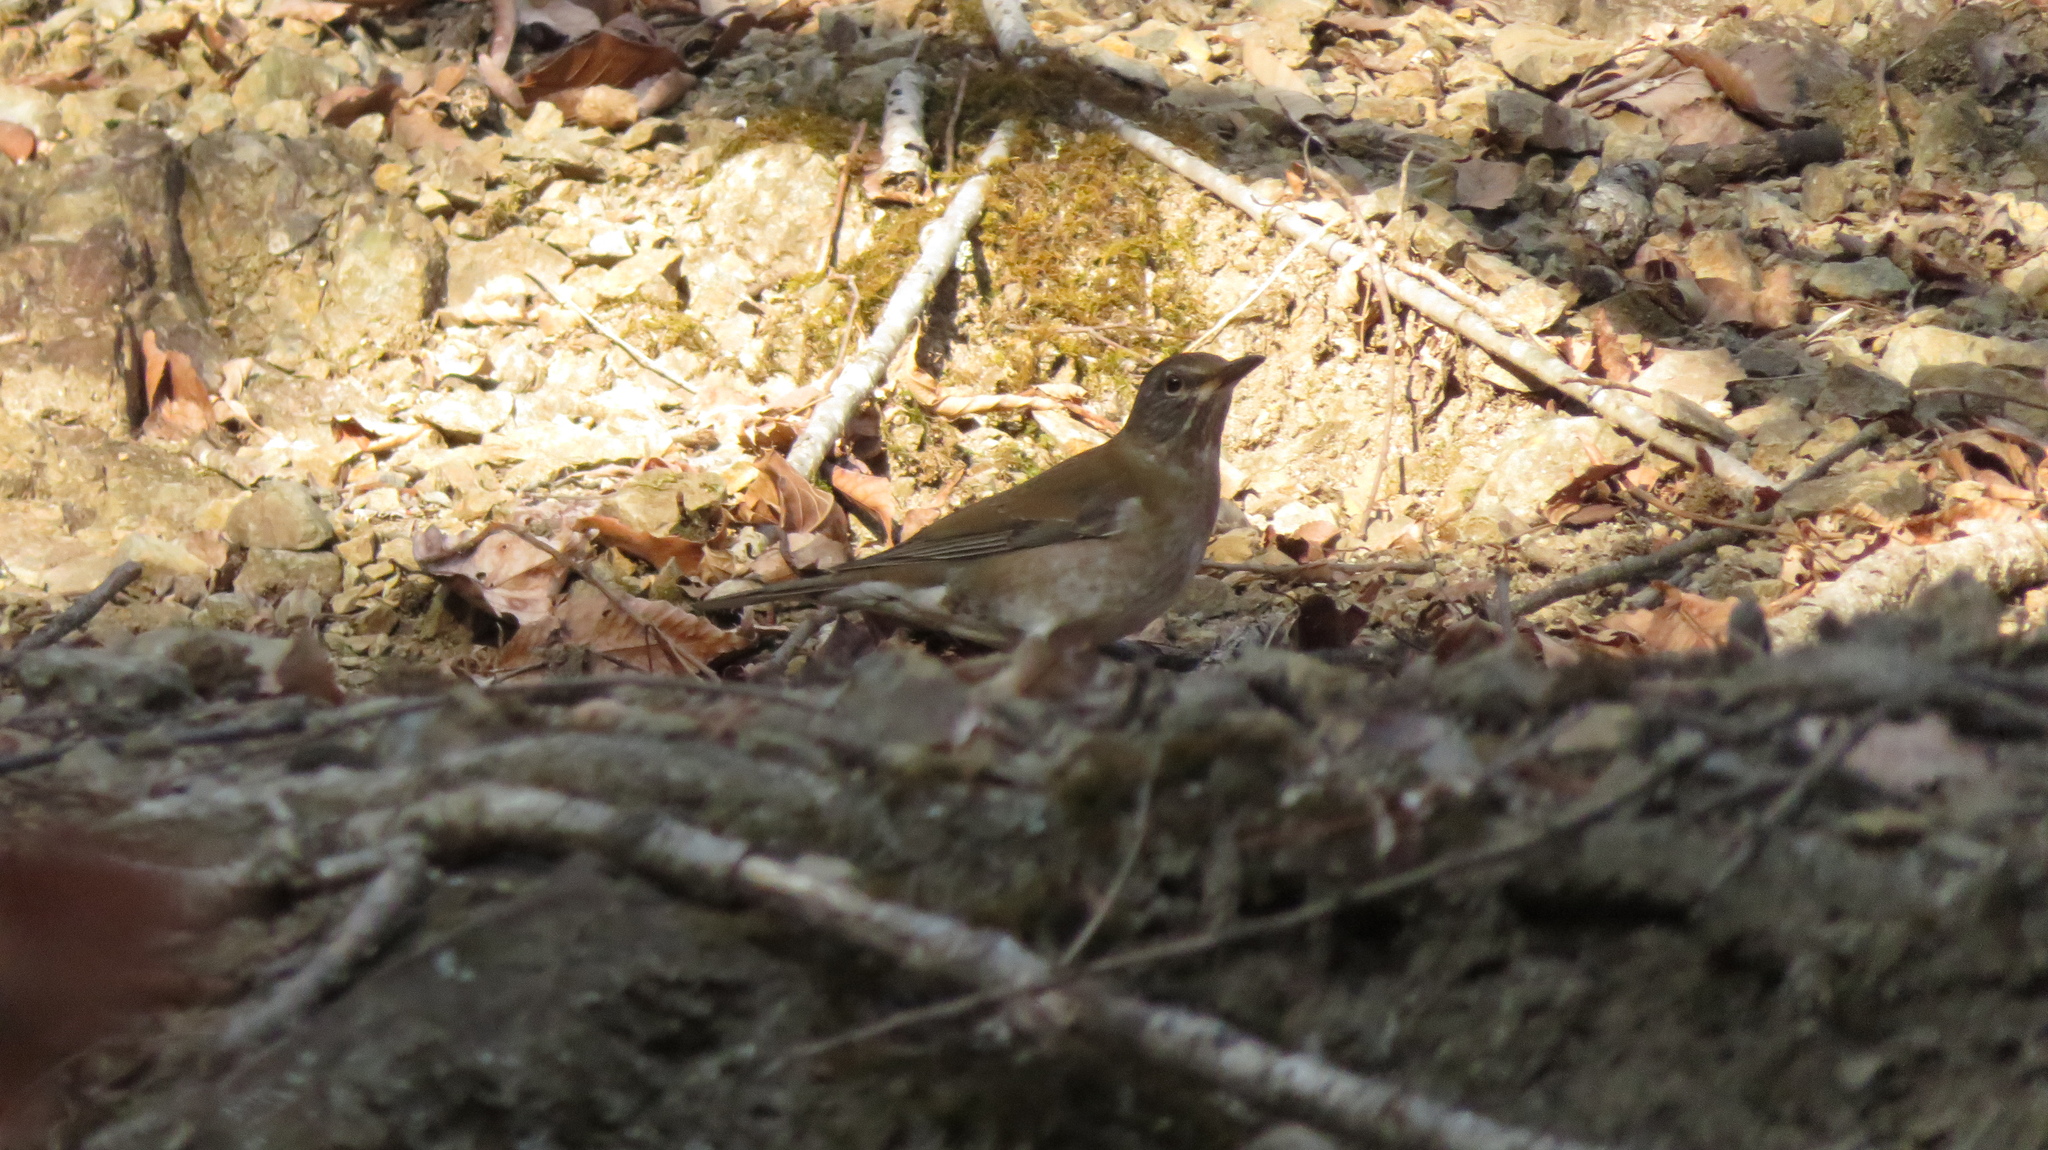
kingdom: Animalia
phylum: Chordata
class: Aves
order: Passeriformes
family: Turdidae
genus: Turdus
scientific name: Turdus pallidus
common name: Pale thrush
